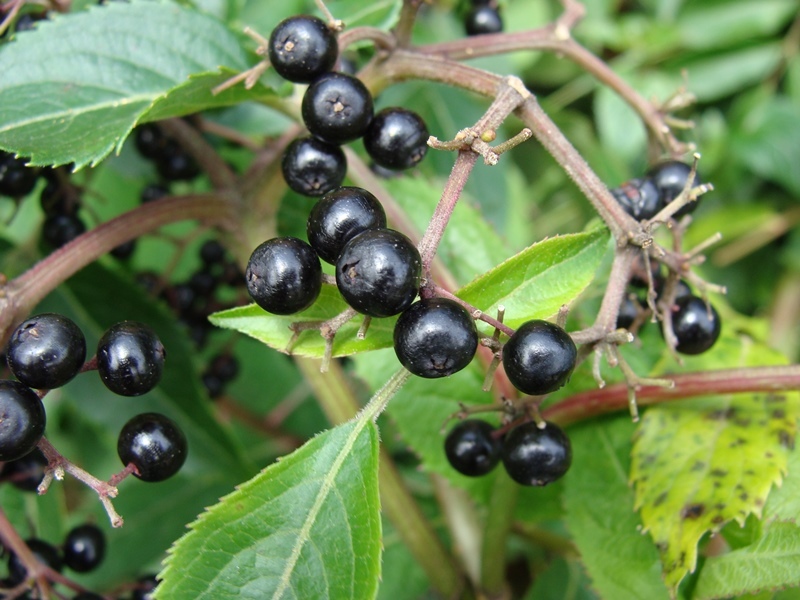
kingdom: Plantae
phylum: Tracheophyta
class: Magnoliopsida
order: Dipsacales
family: Viburnaceae
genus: Sambucus
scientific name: Sambucus canadensis
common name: American elder
